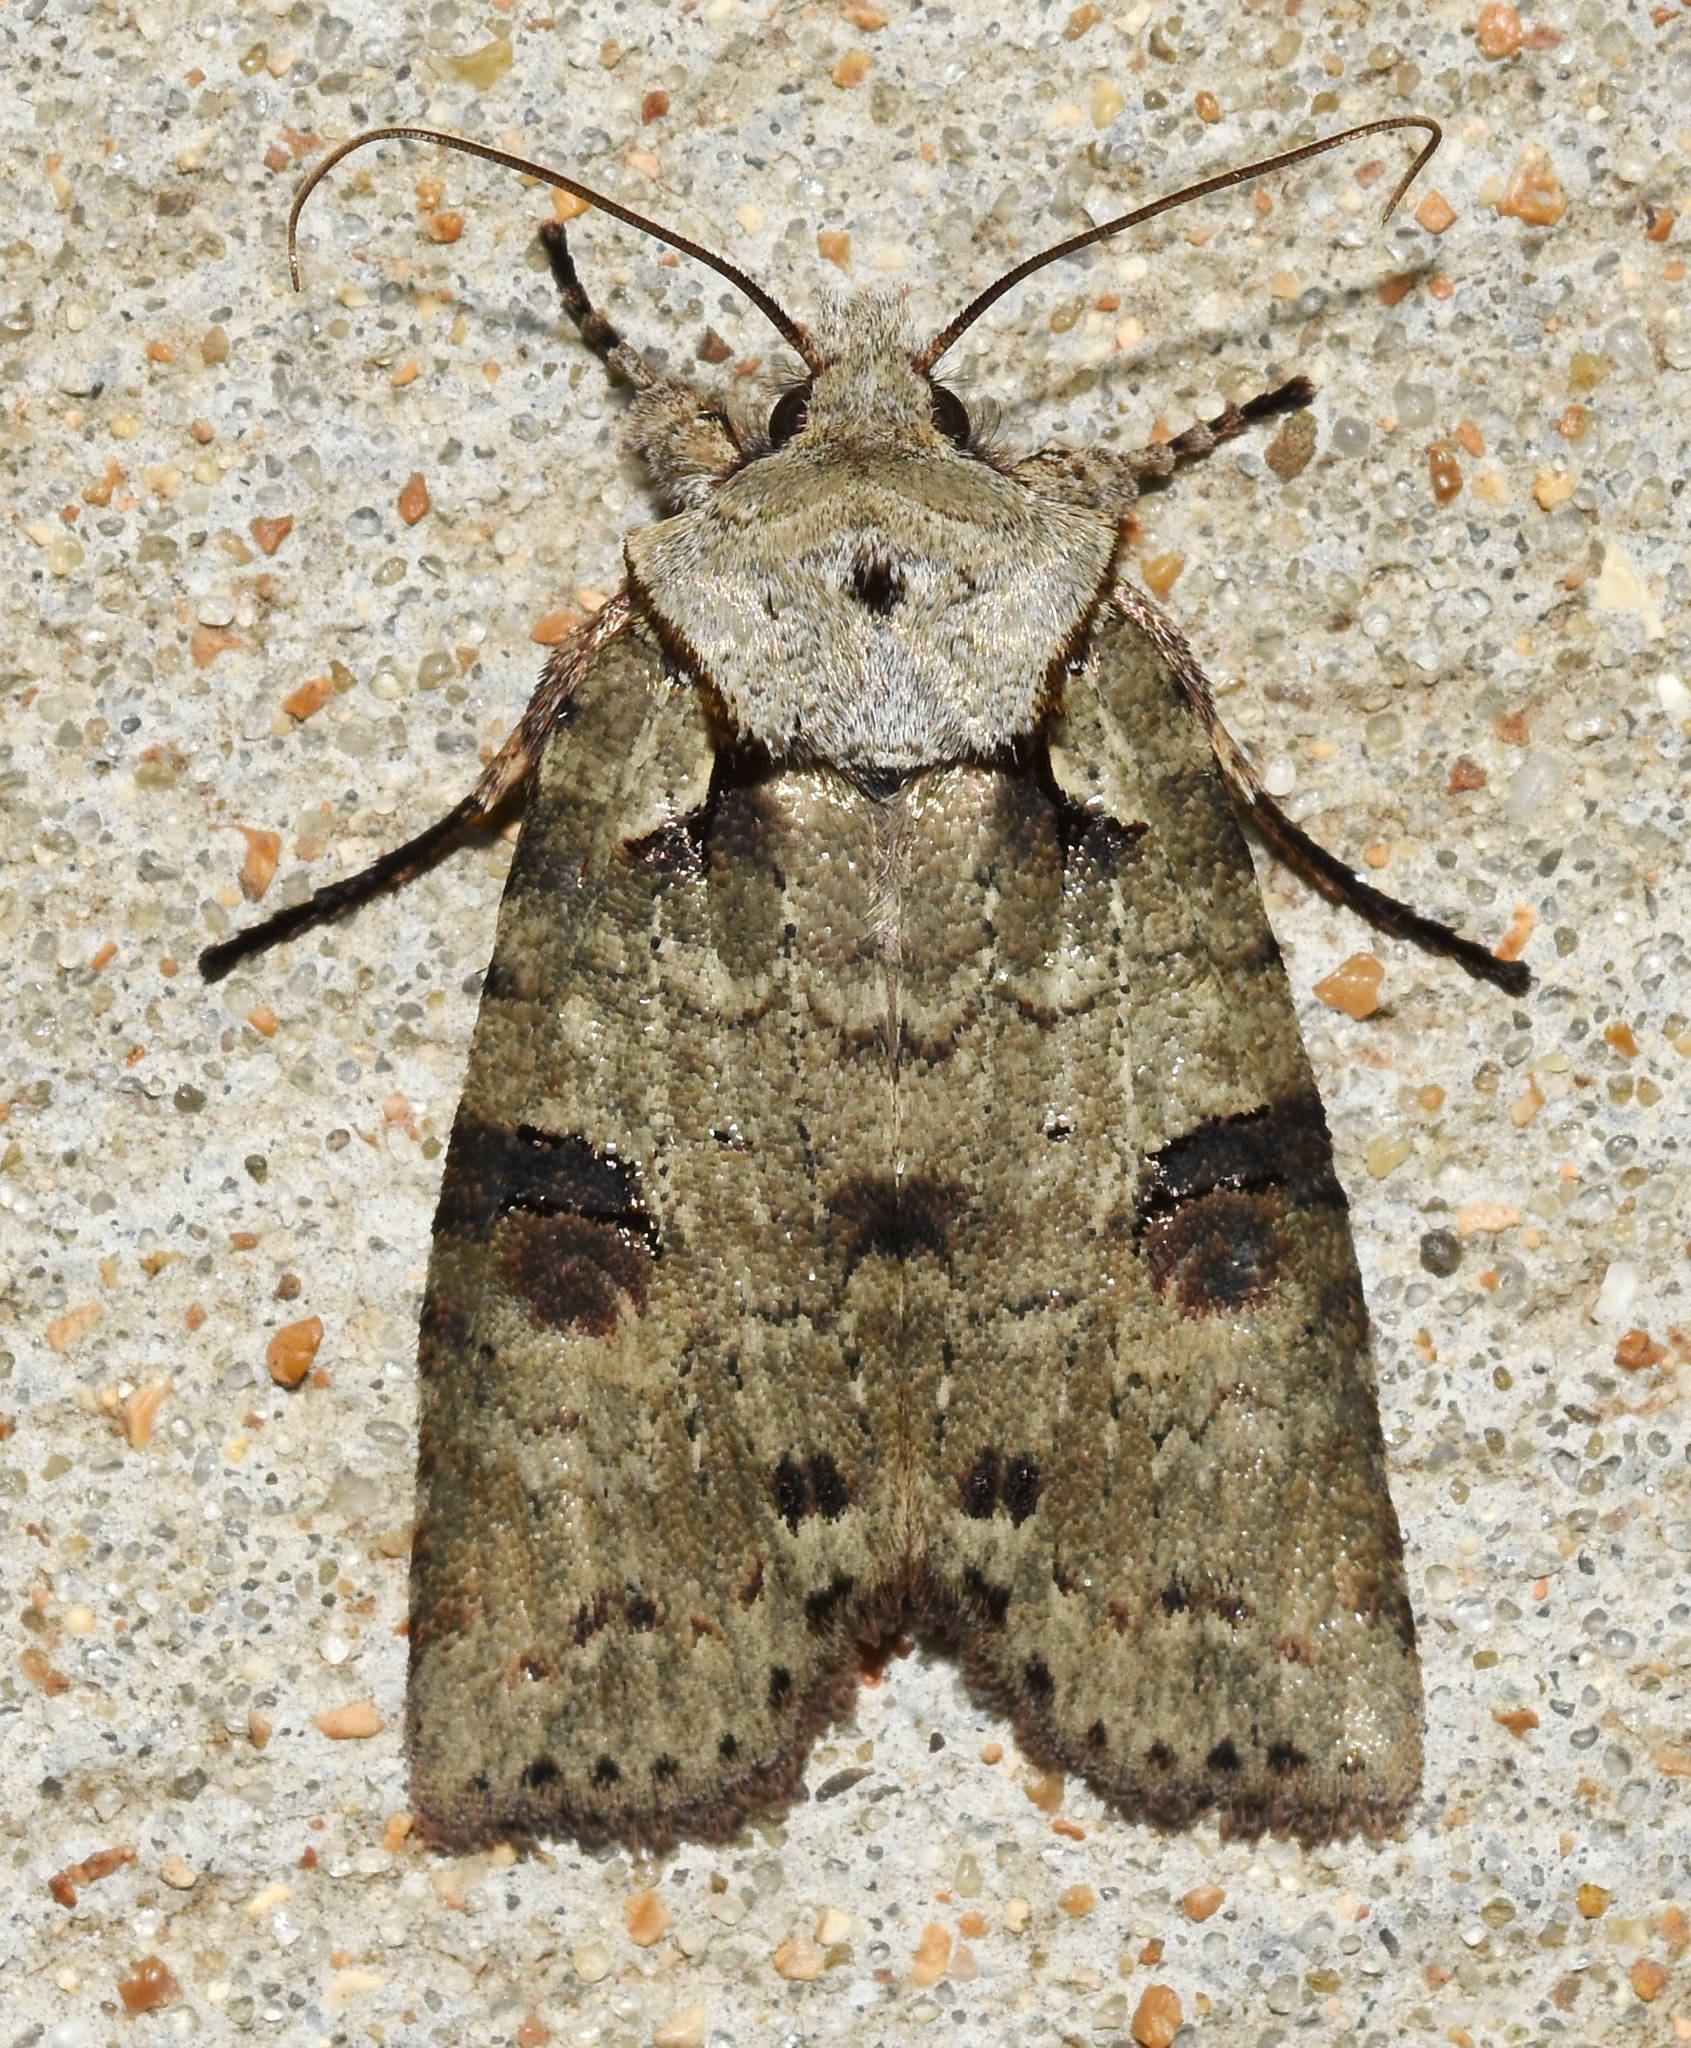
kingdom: Animalia
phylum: Arthropoda
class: Insecta
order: Lepidoptera
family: Noctuidae
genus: Lithophane
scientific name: Lithophane querquera
